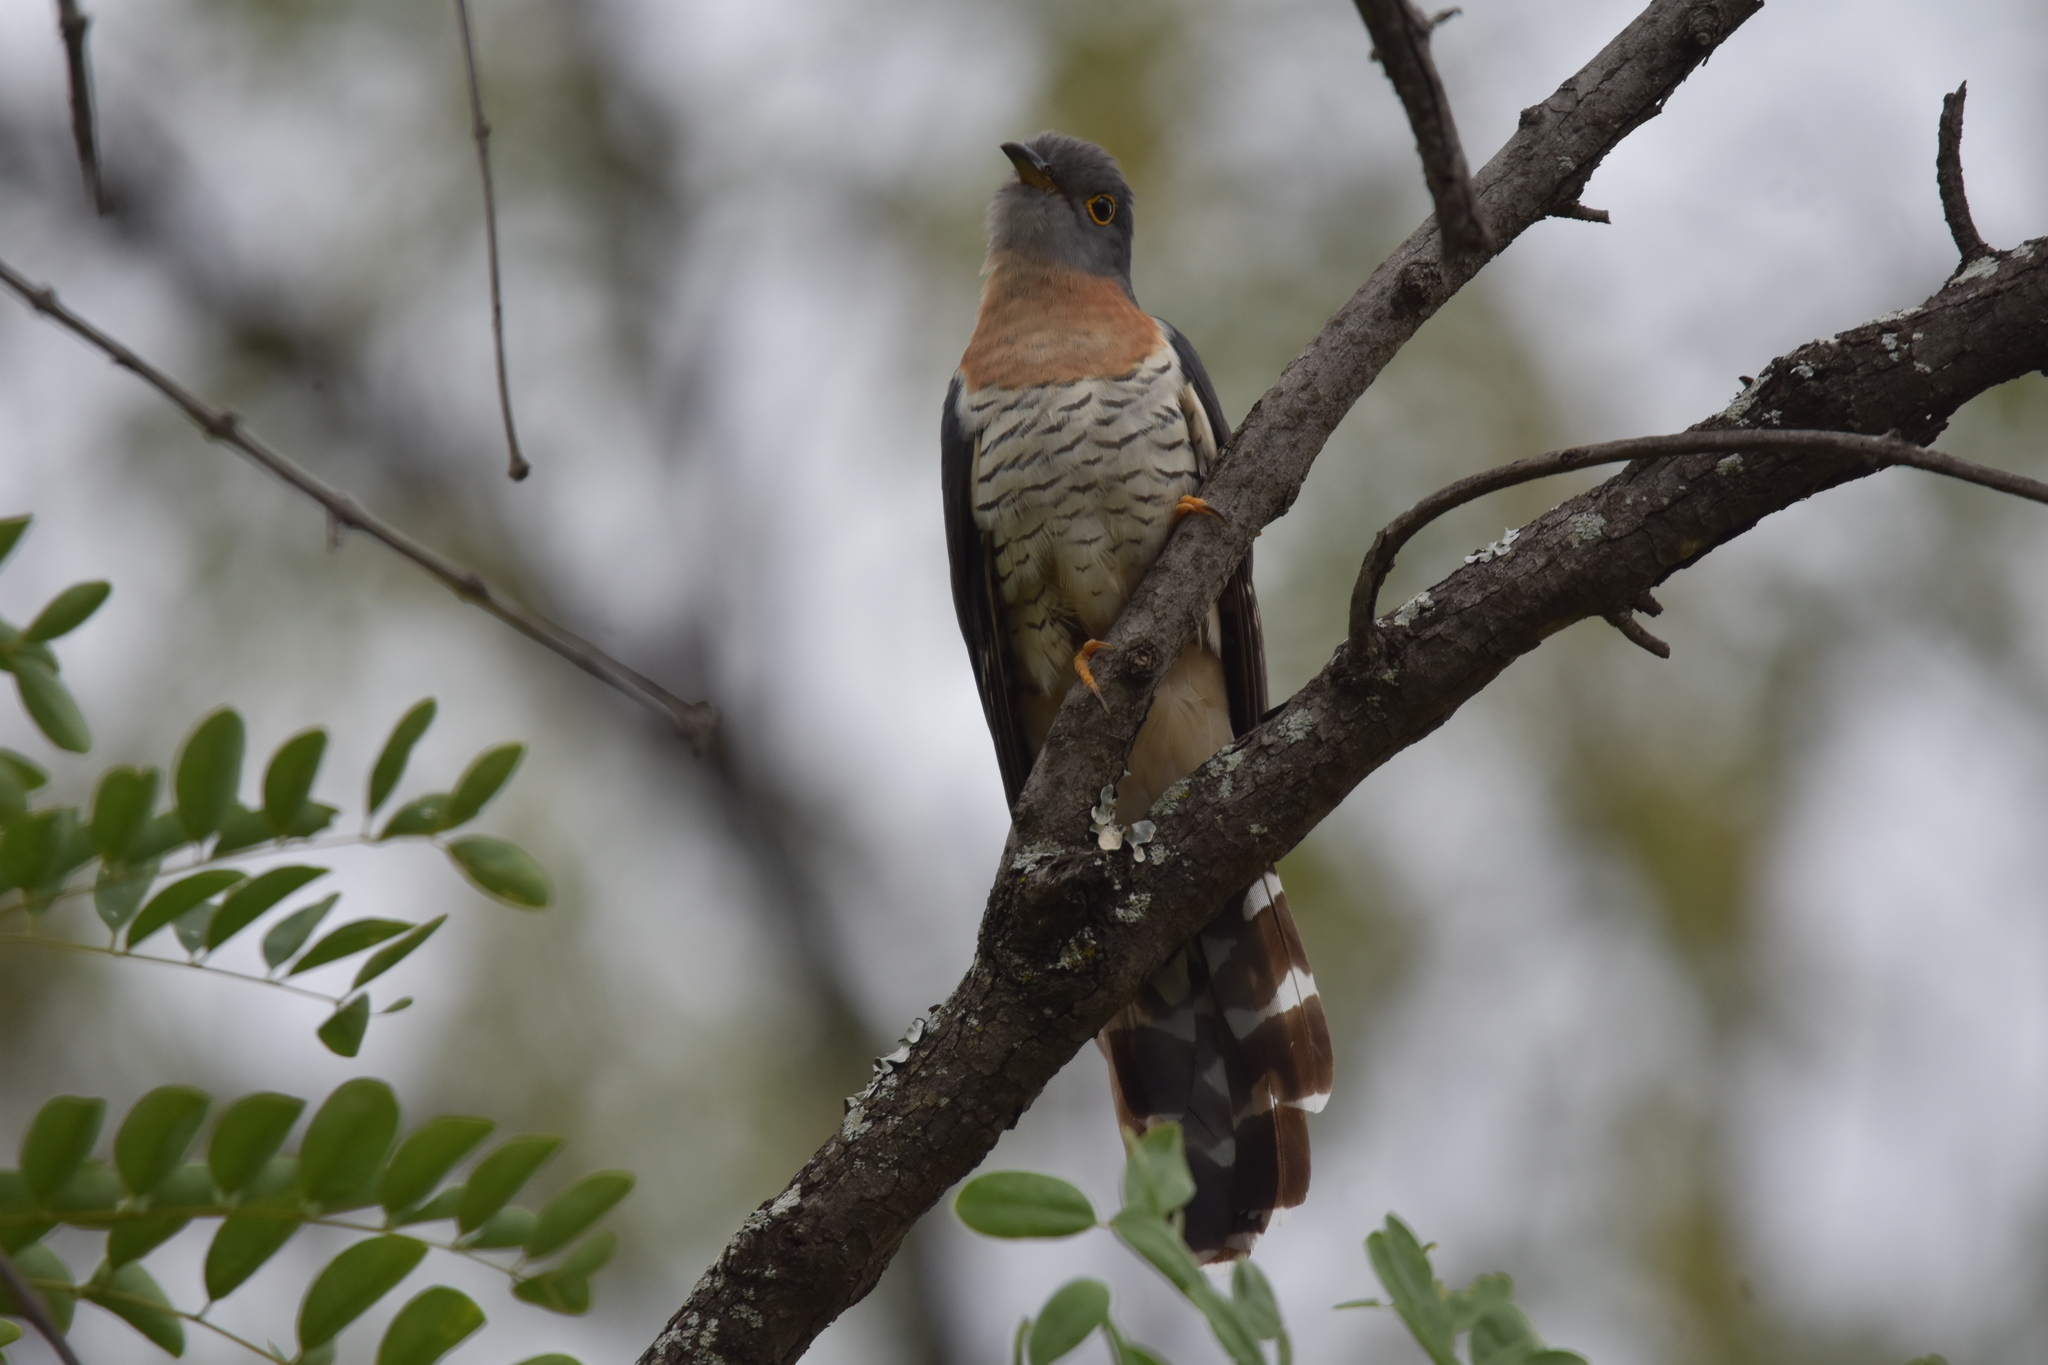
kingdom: Animalia
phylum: Chordata
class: Aves
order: Cuculiformes
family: Cuculidae
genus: Cuculus
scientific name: Cuculus solitarius
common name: Red-chested cuckoo
